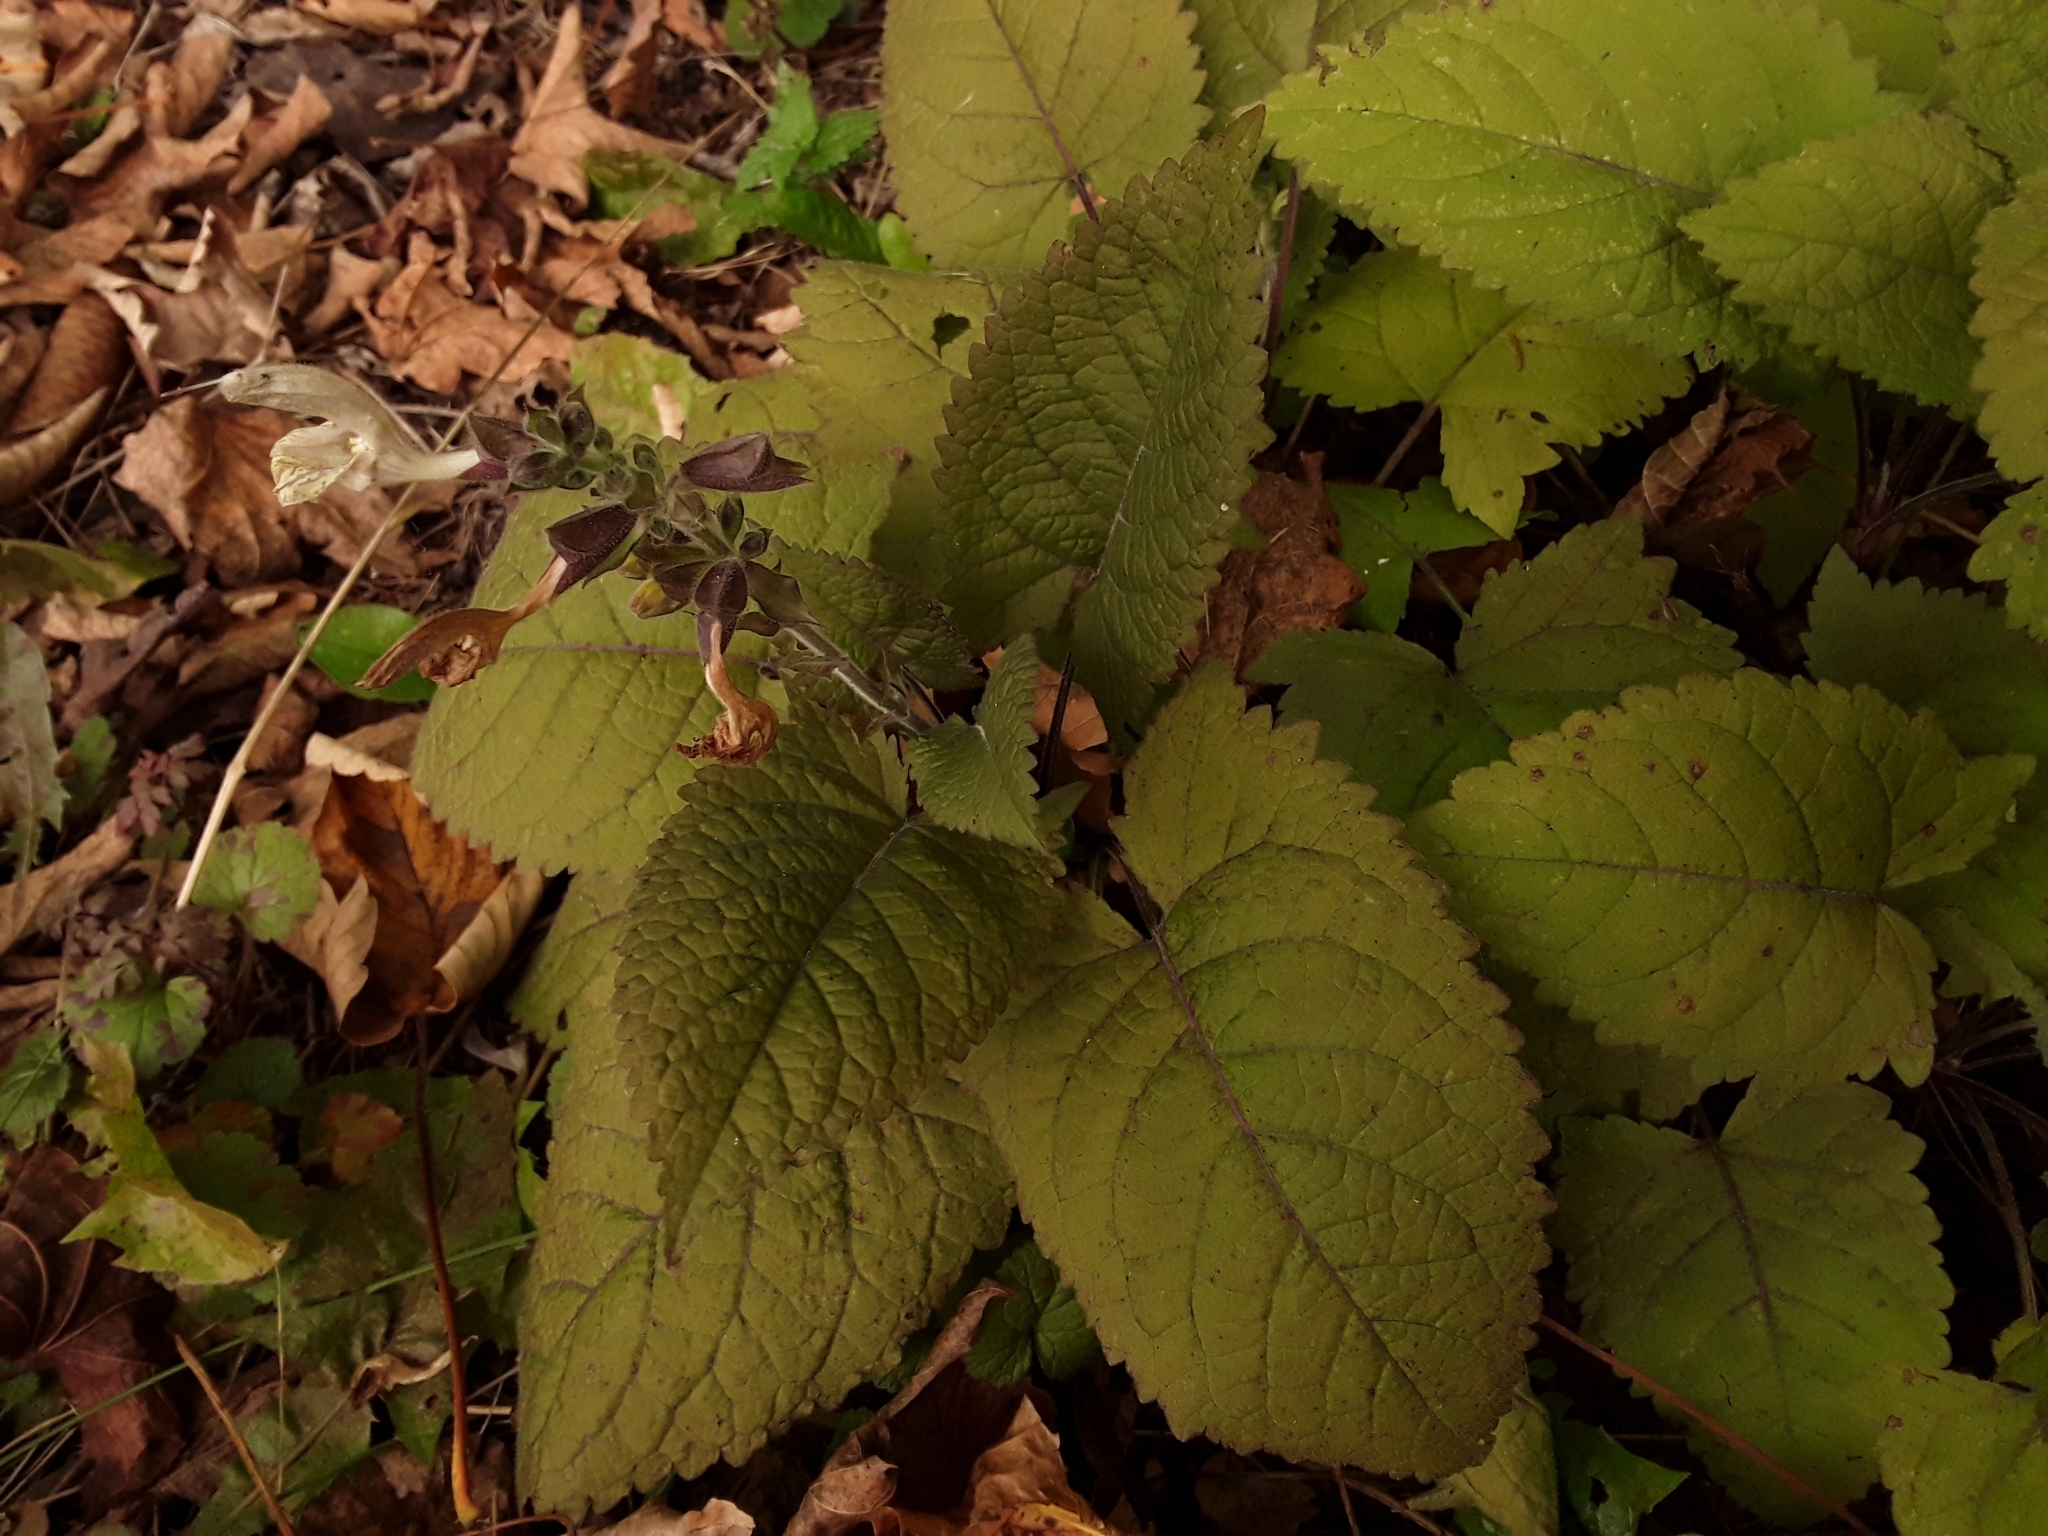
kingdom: Plantae
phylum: Tracheophyta
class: Magnoliopsida
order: Lamiales
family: Lamiaceae
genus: Salvia
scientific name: Salvia glutinosa
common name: Sticky clary
